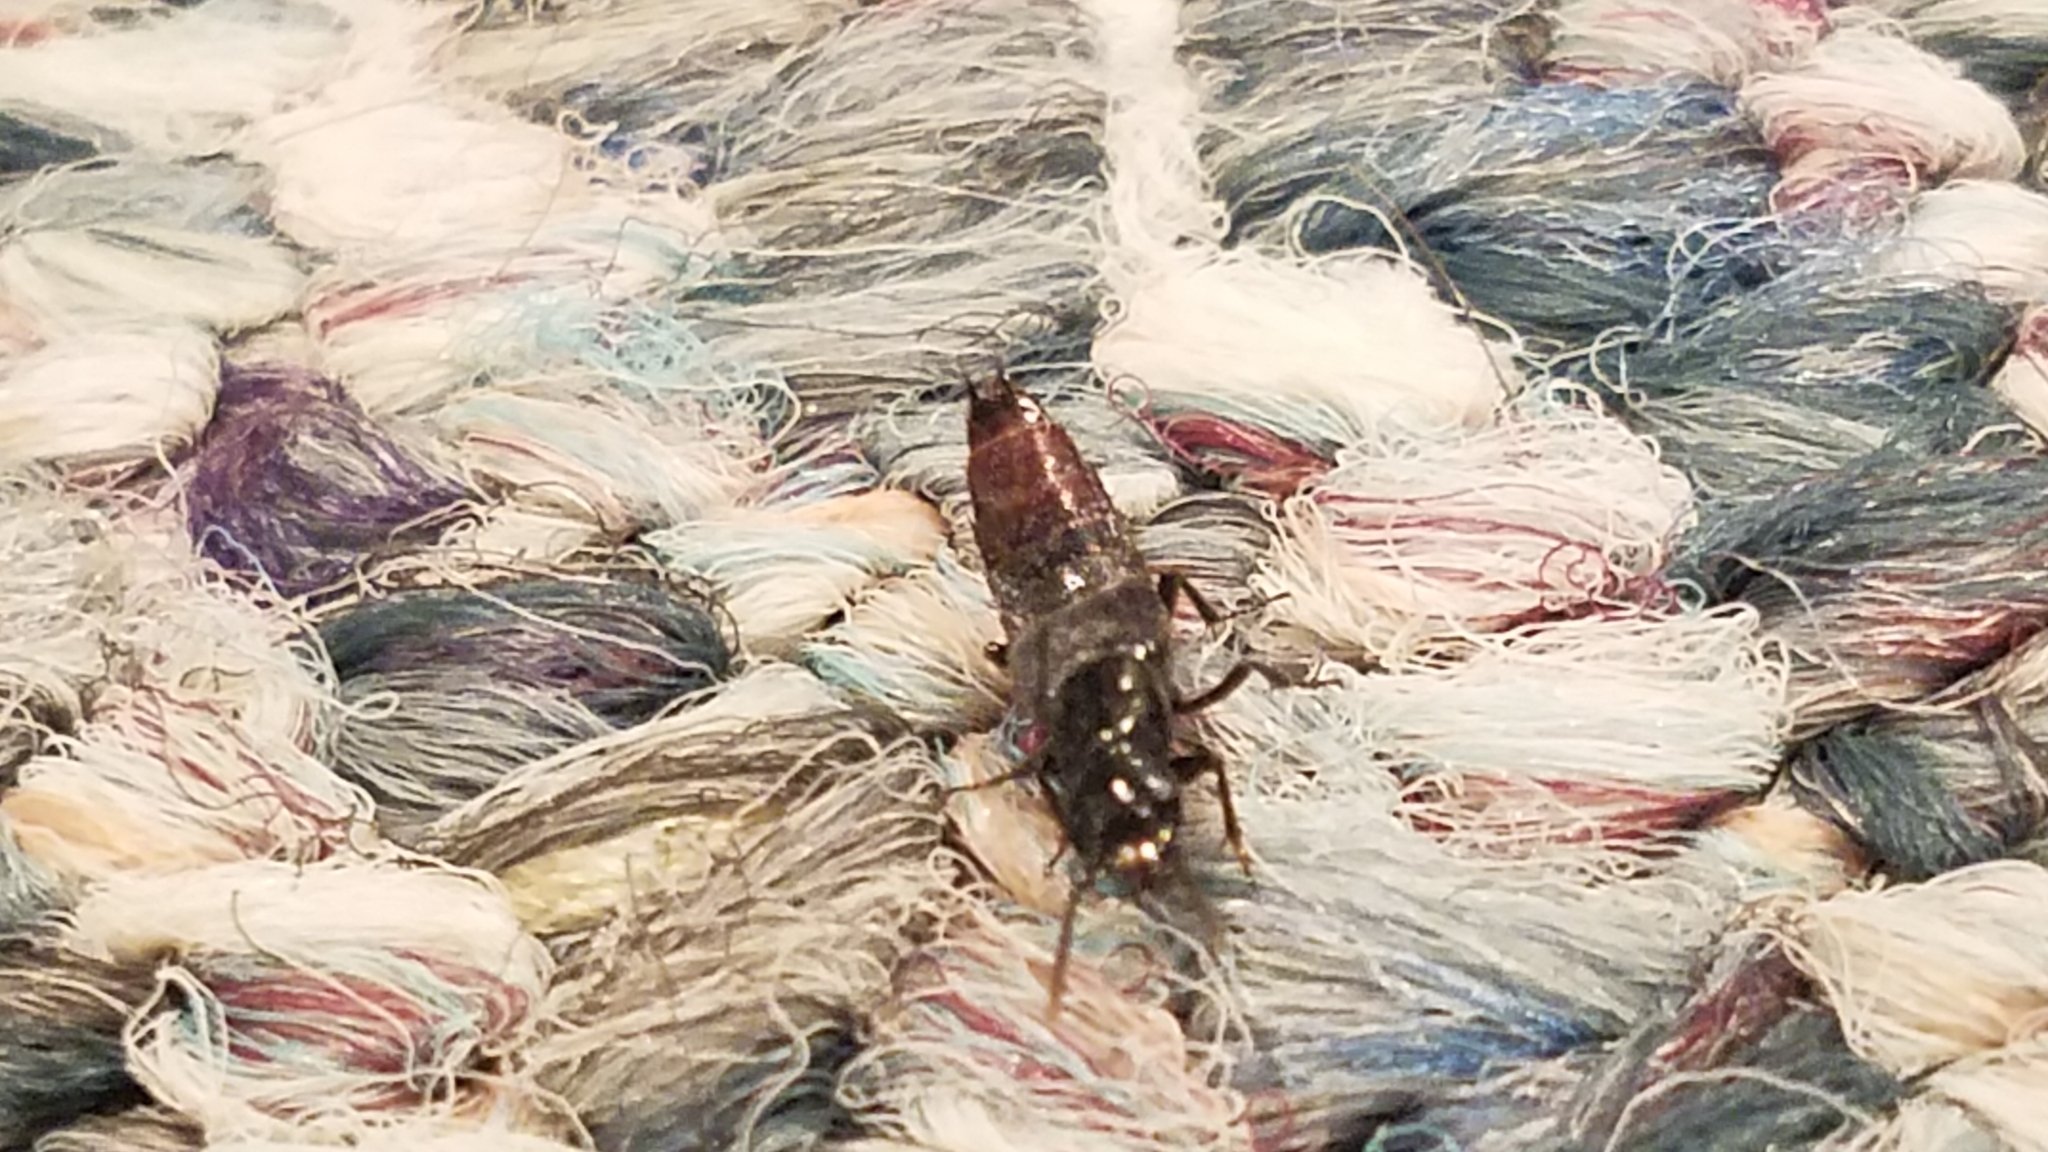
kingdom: Animalia
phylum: Arthropoda
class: Insecta
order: Coleoptera
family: Staphylinidae
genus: Hesperus
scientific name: Hesperus apicialis
